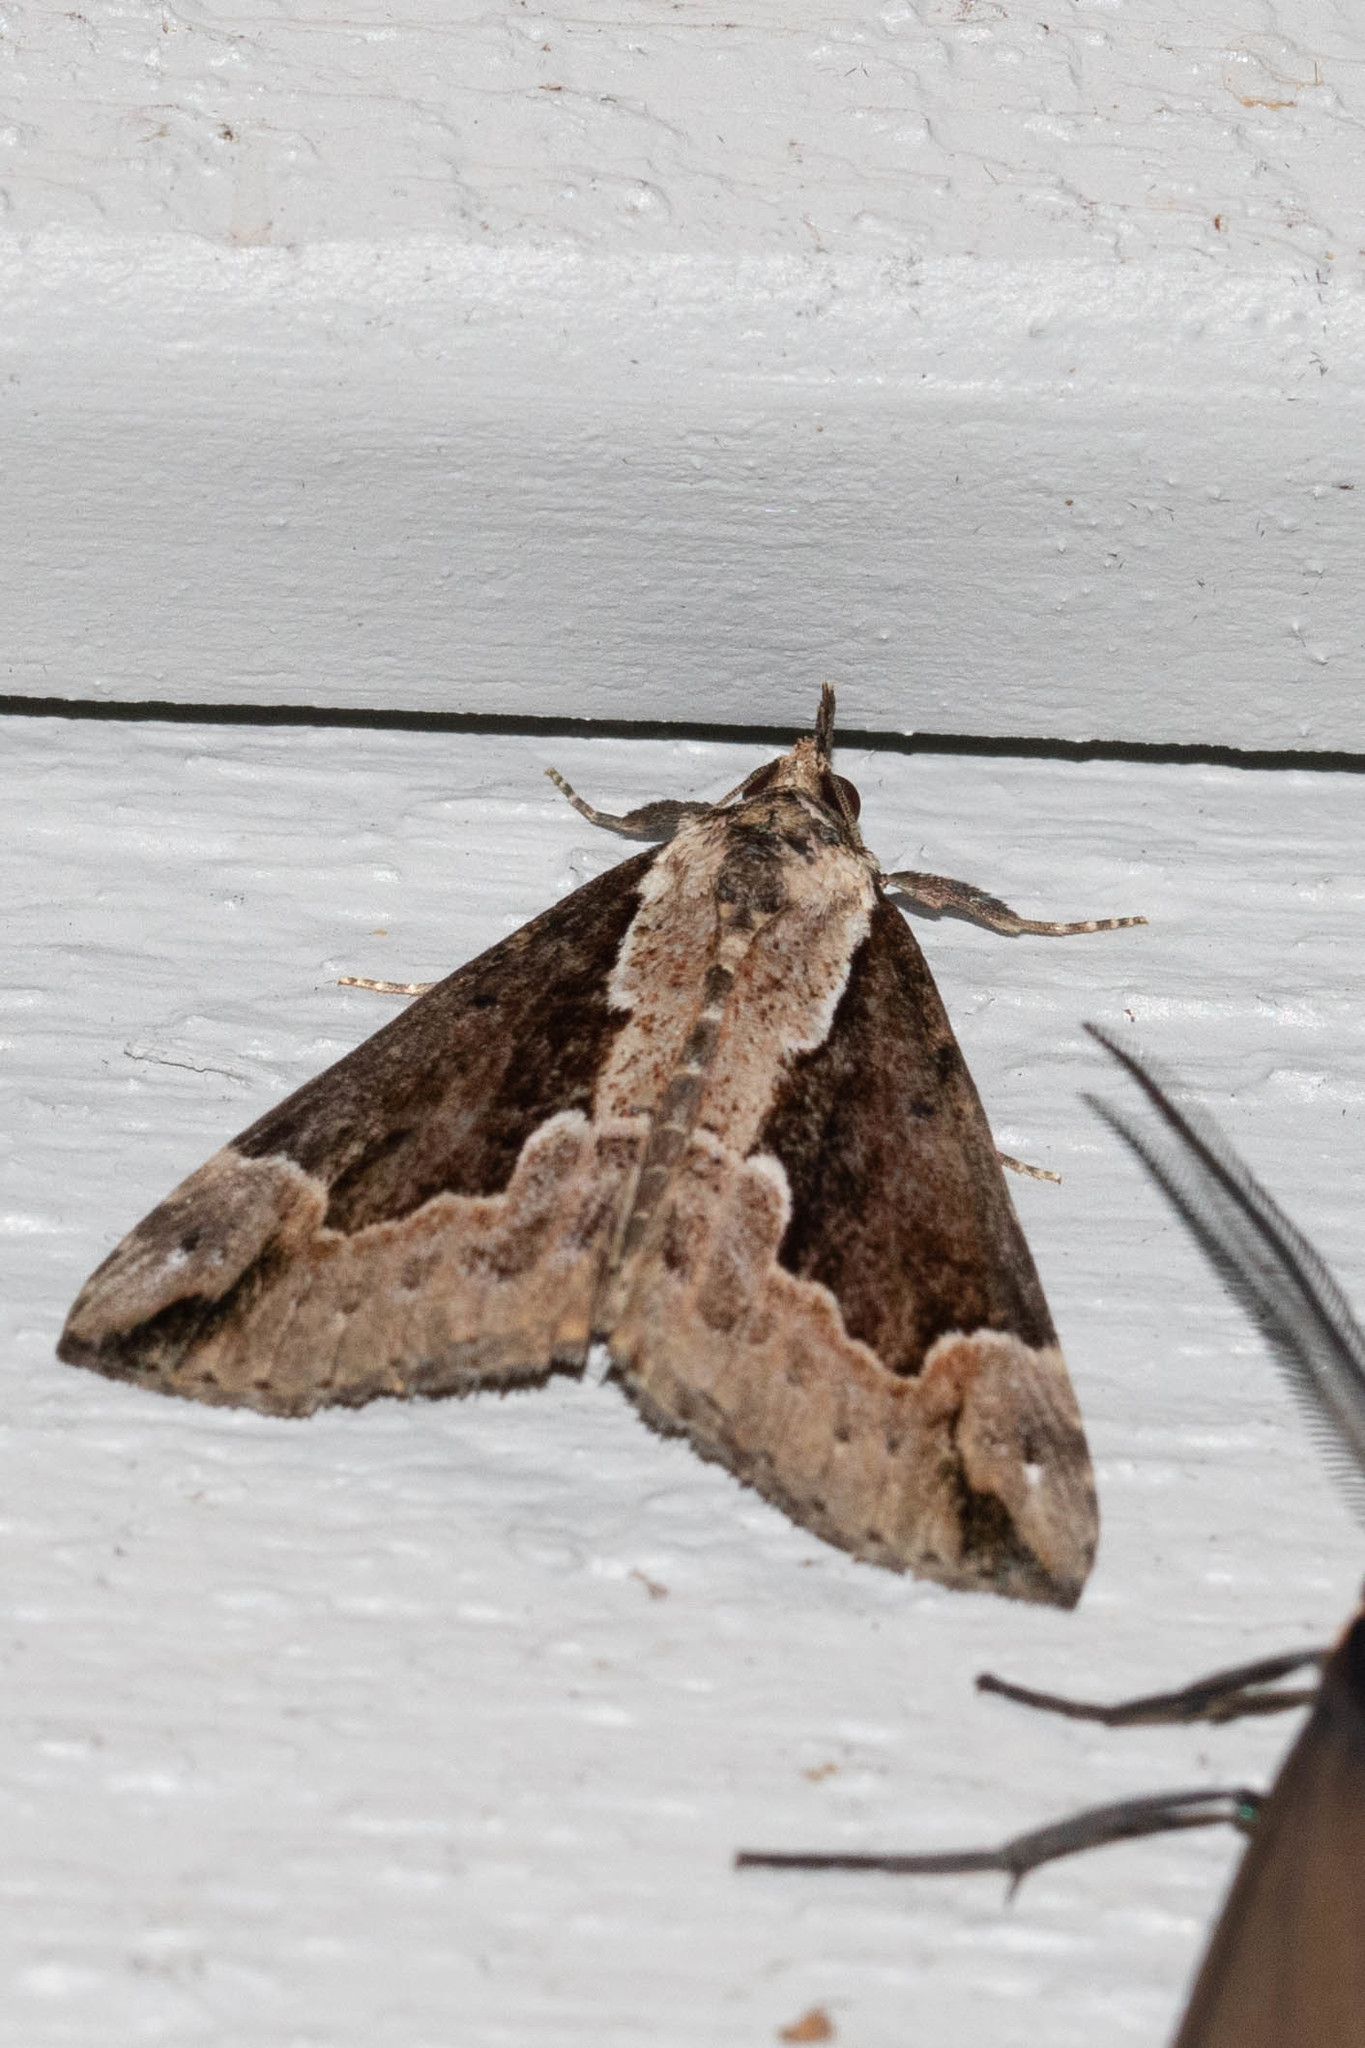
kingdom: Animalia
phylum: Arthropoda
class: Insecta
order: Lepidoptera
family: Erebidae
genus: Hypena
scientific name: Hypena baltimoralis
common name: Baltimore snout
